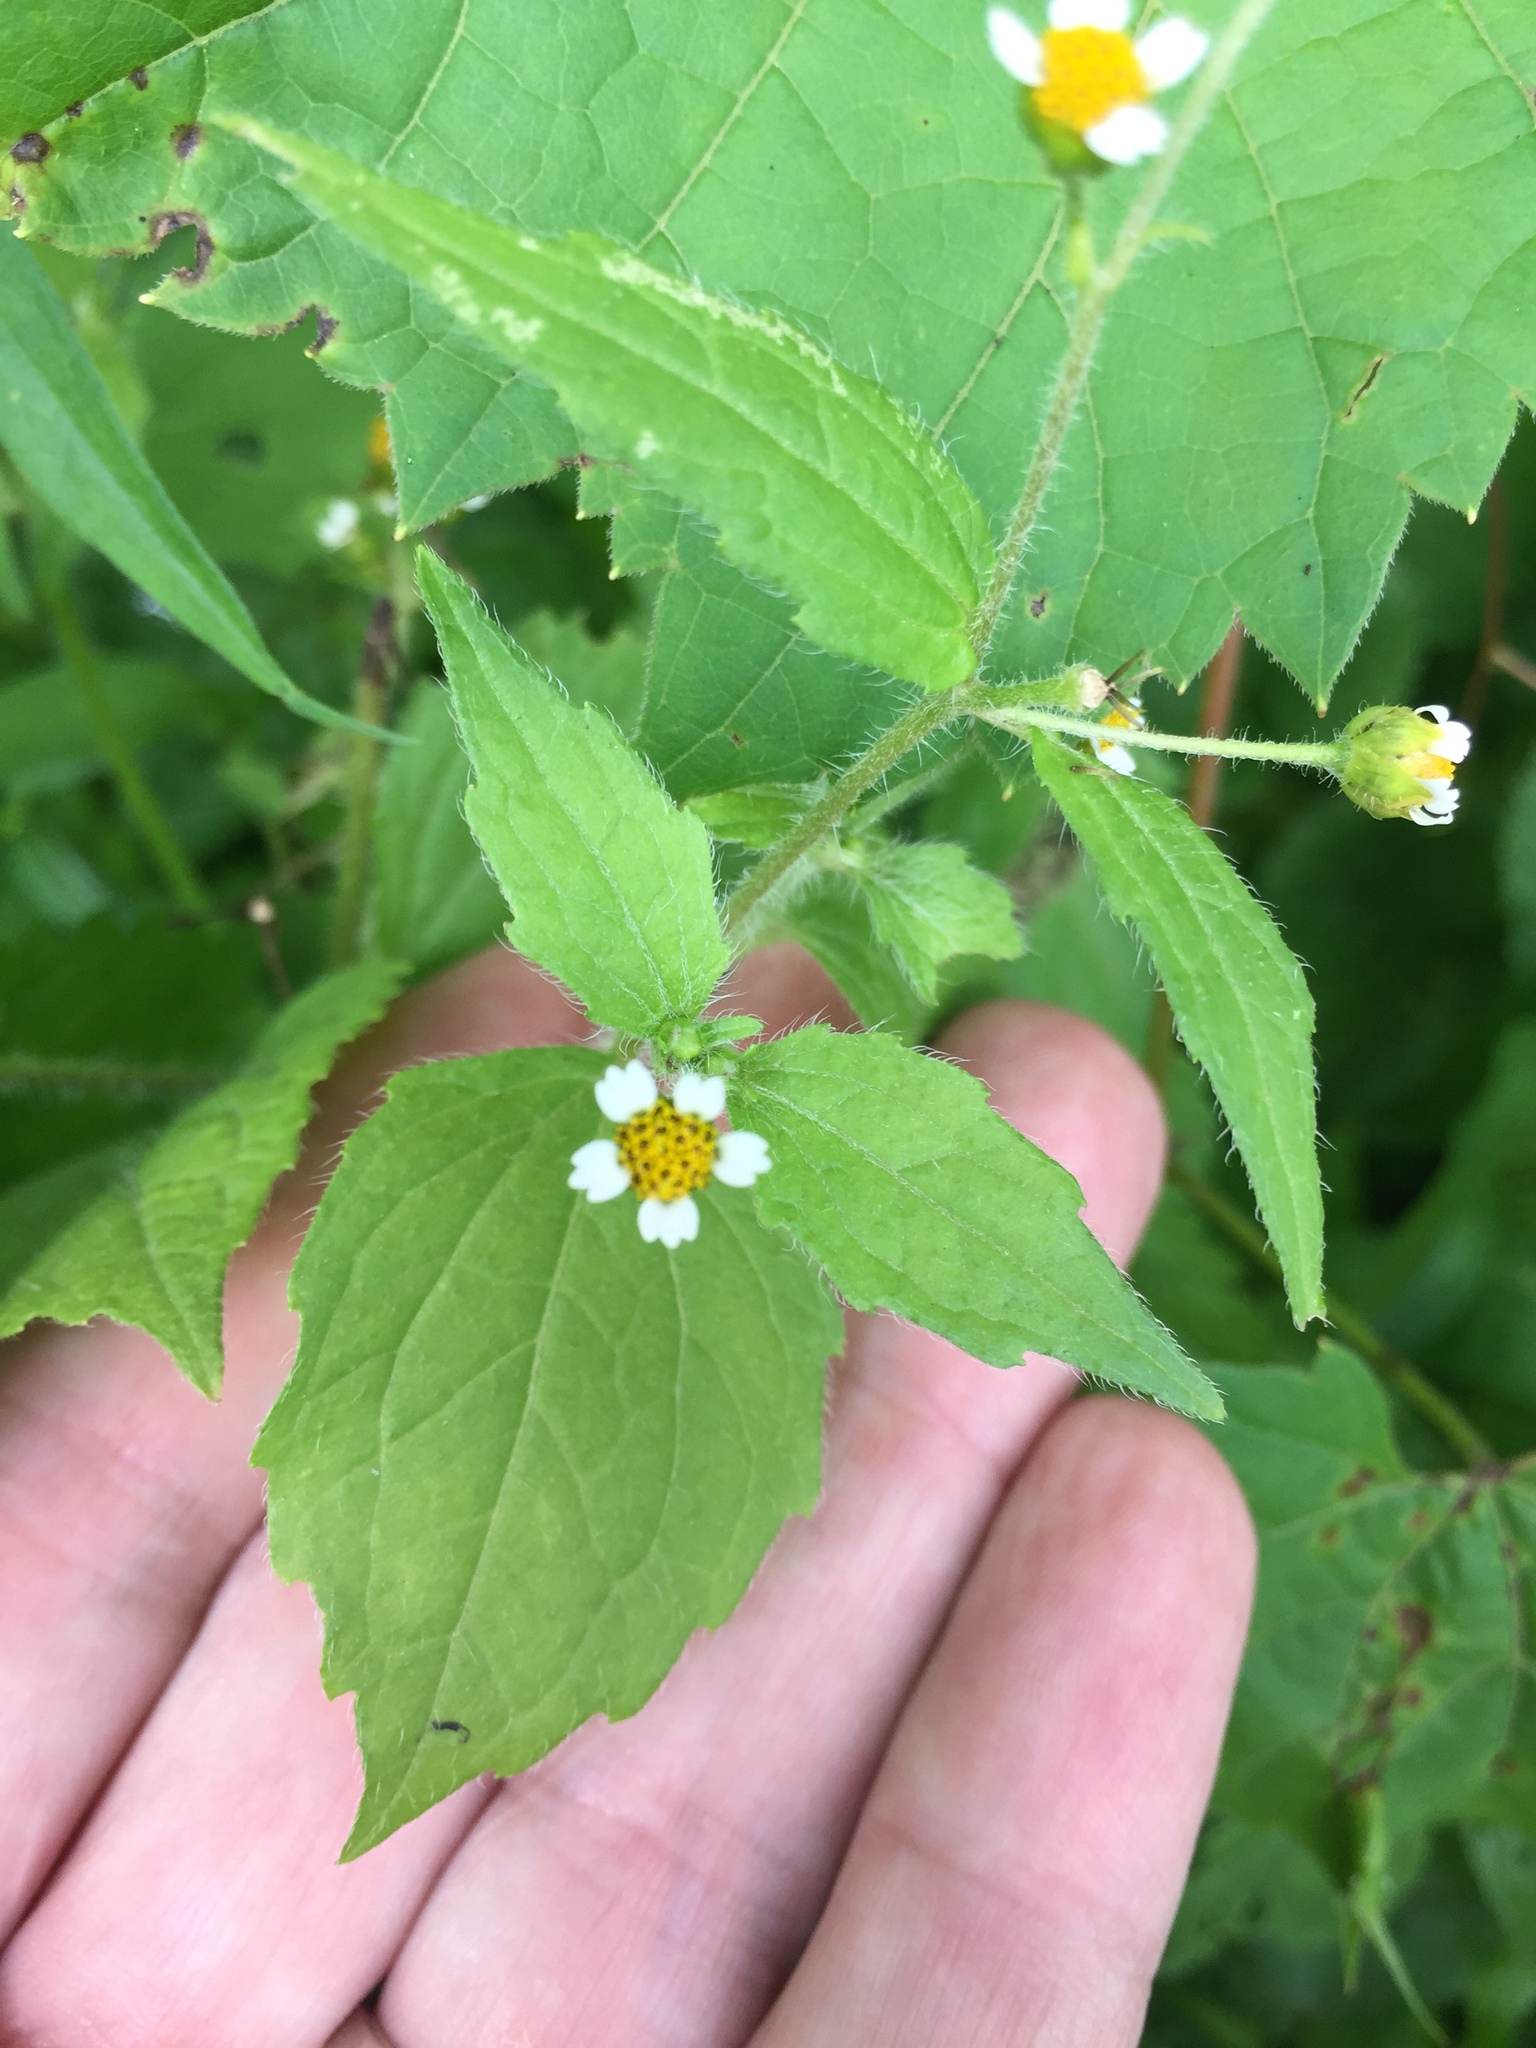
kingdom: Plantae
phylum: Tracheophyta
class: Magnoliopsida
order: Asterales
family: Asteraceae
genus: Galinsoga
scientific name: Galinsoga quadriradiata
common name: Shaggy soldier
